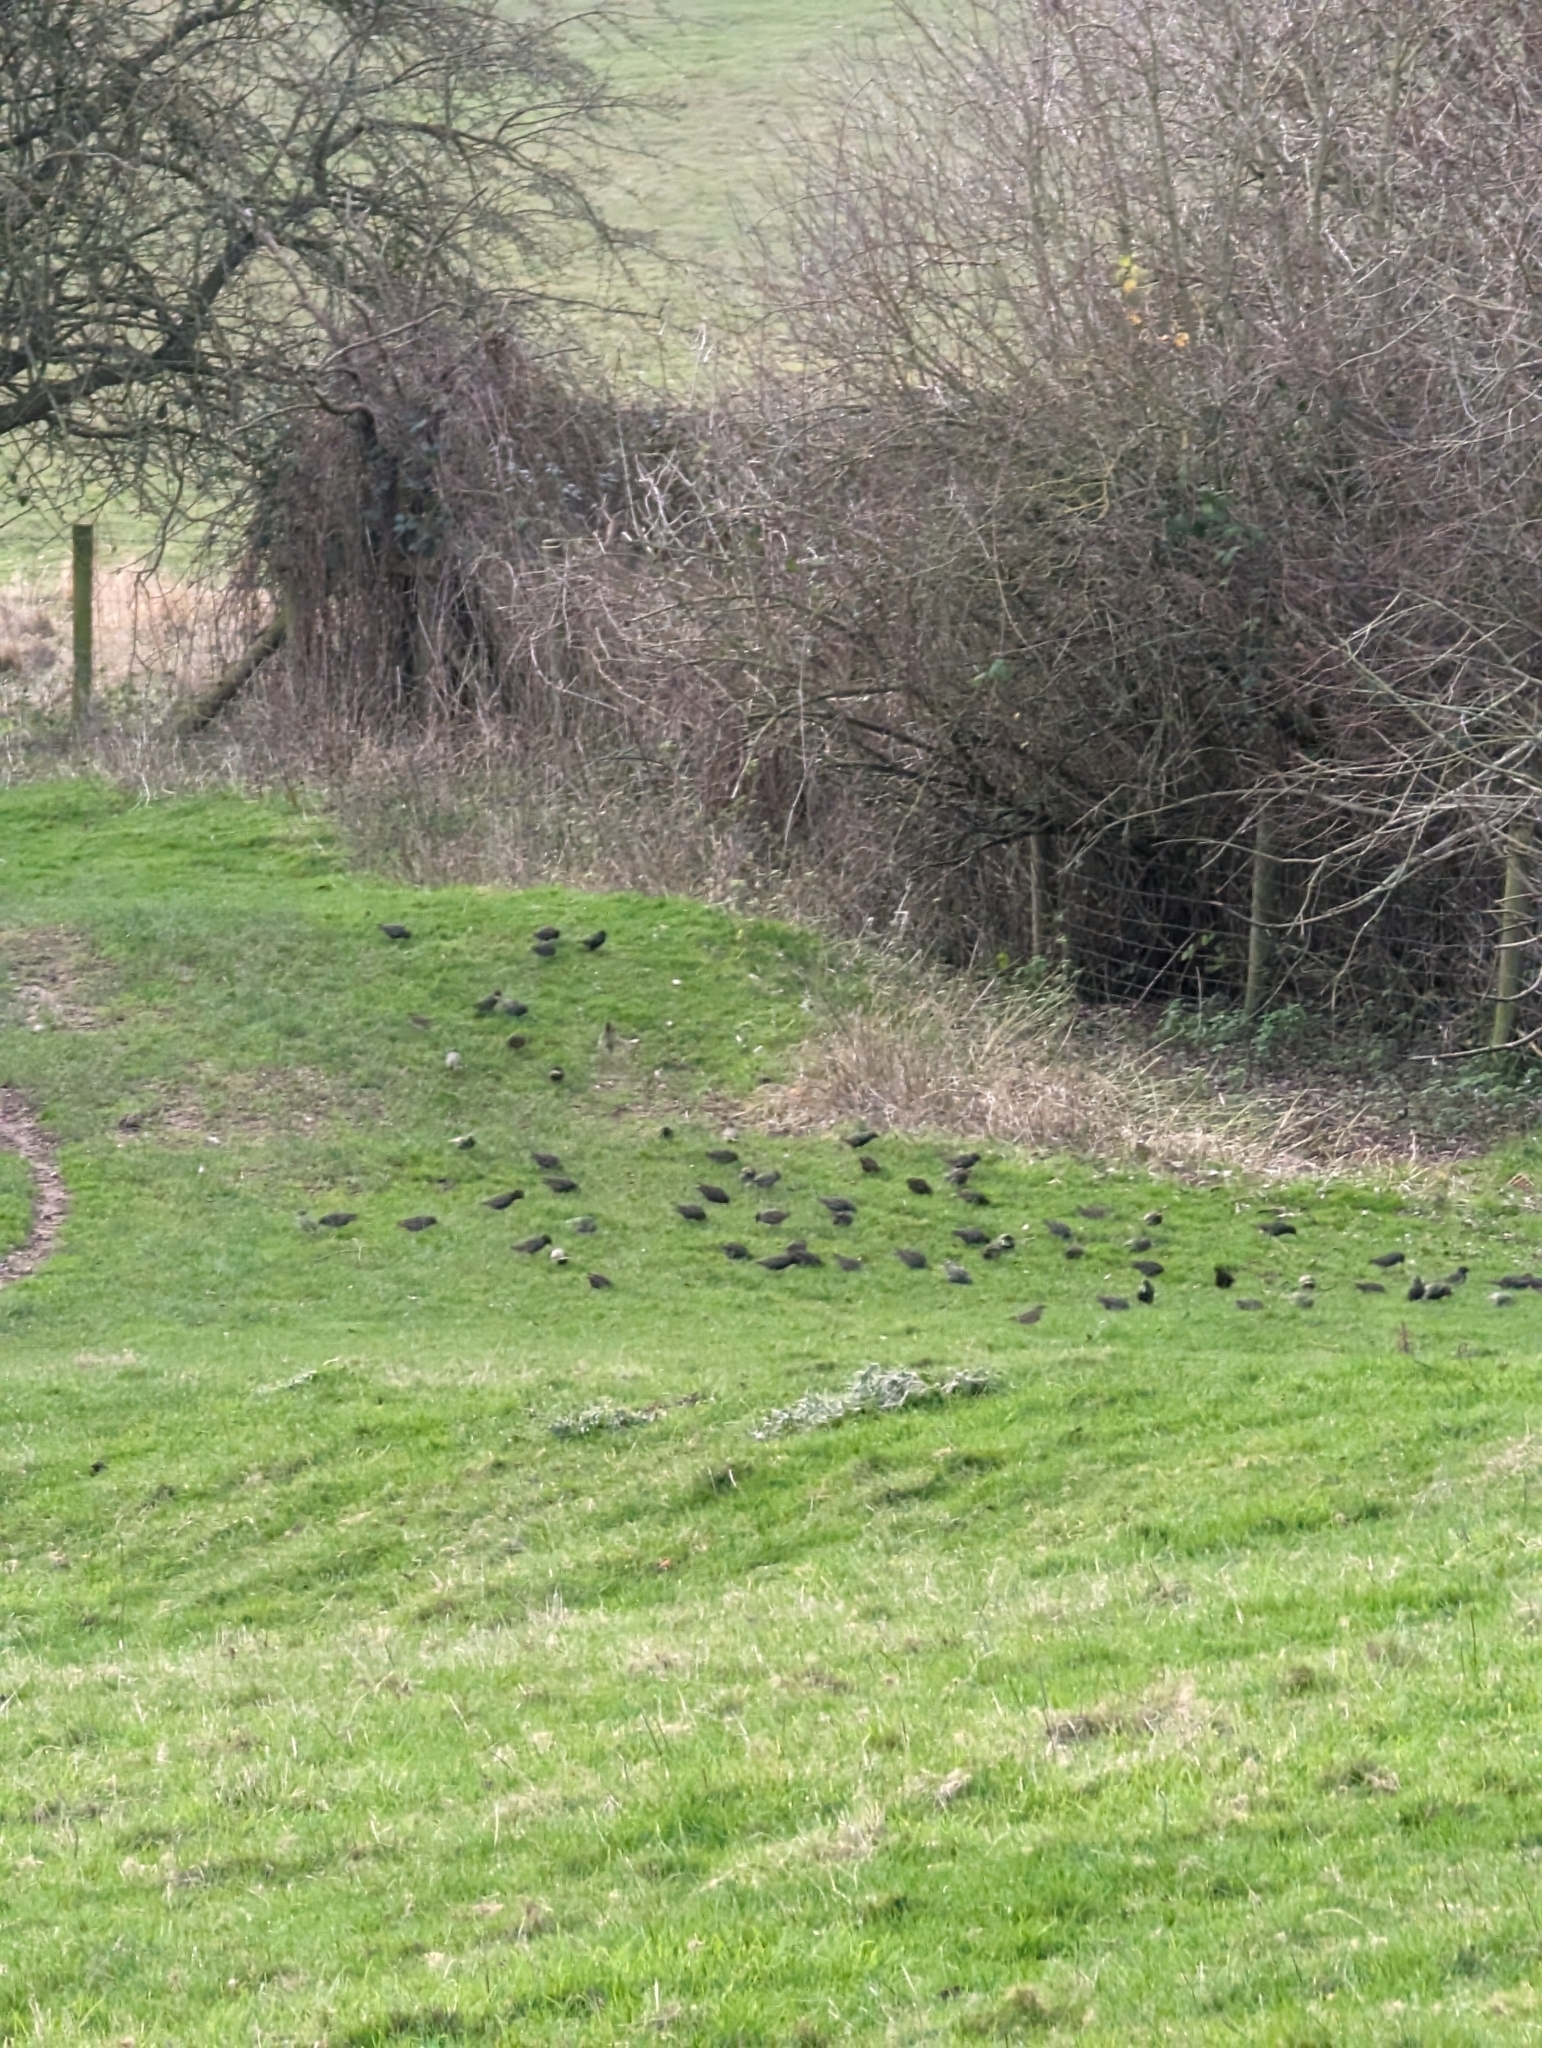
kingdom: Animalia
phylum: Chordata
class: Aves
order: Passeriformes
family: Sturnidae
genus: Sturnus
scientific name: Sturnus vulgaris
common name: Common starling
